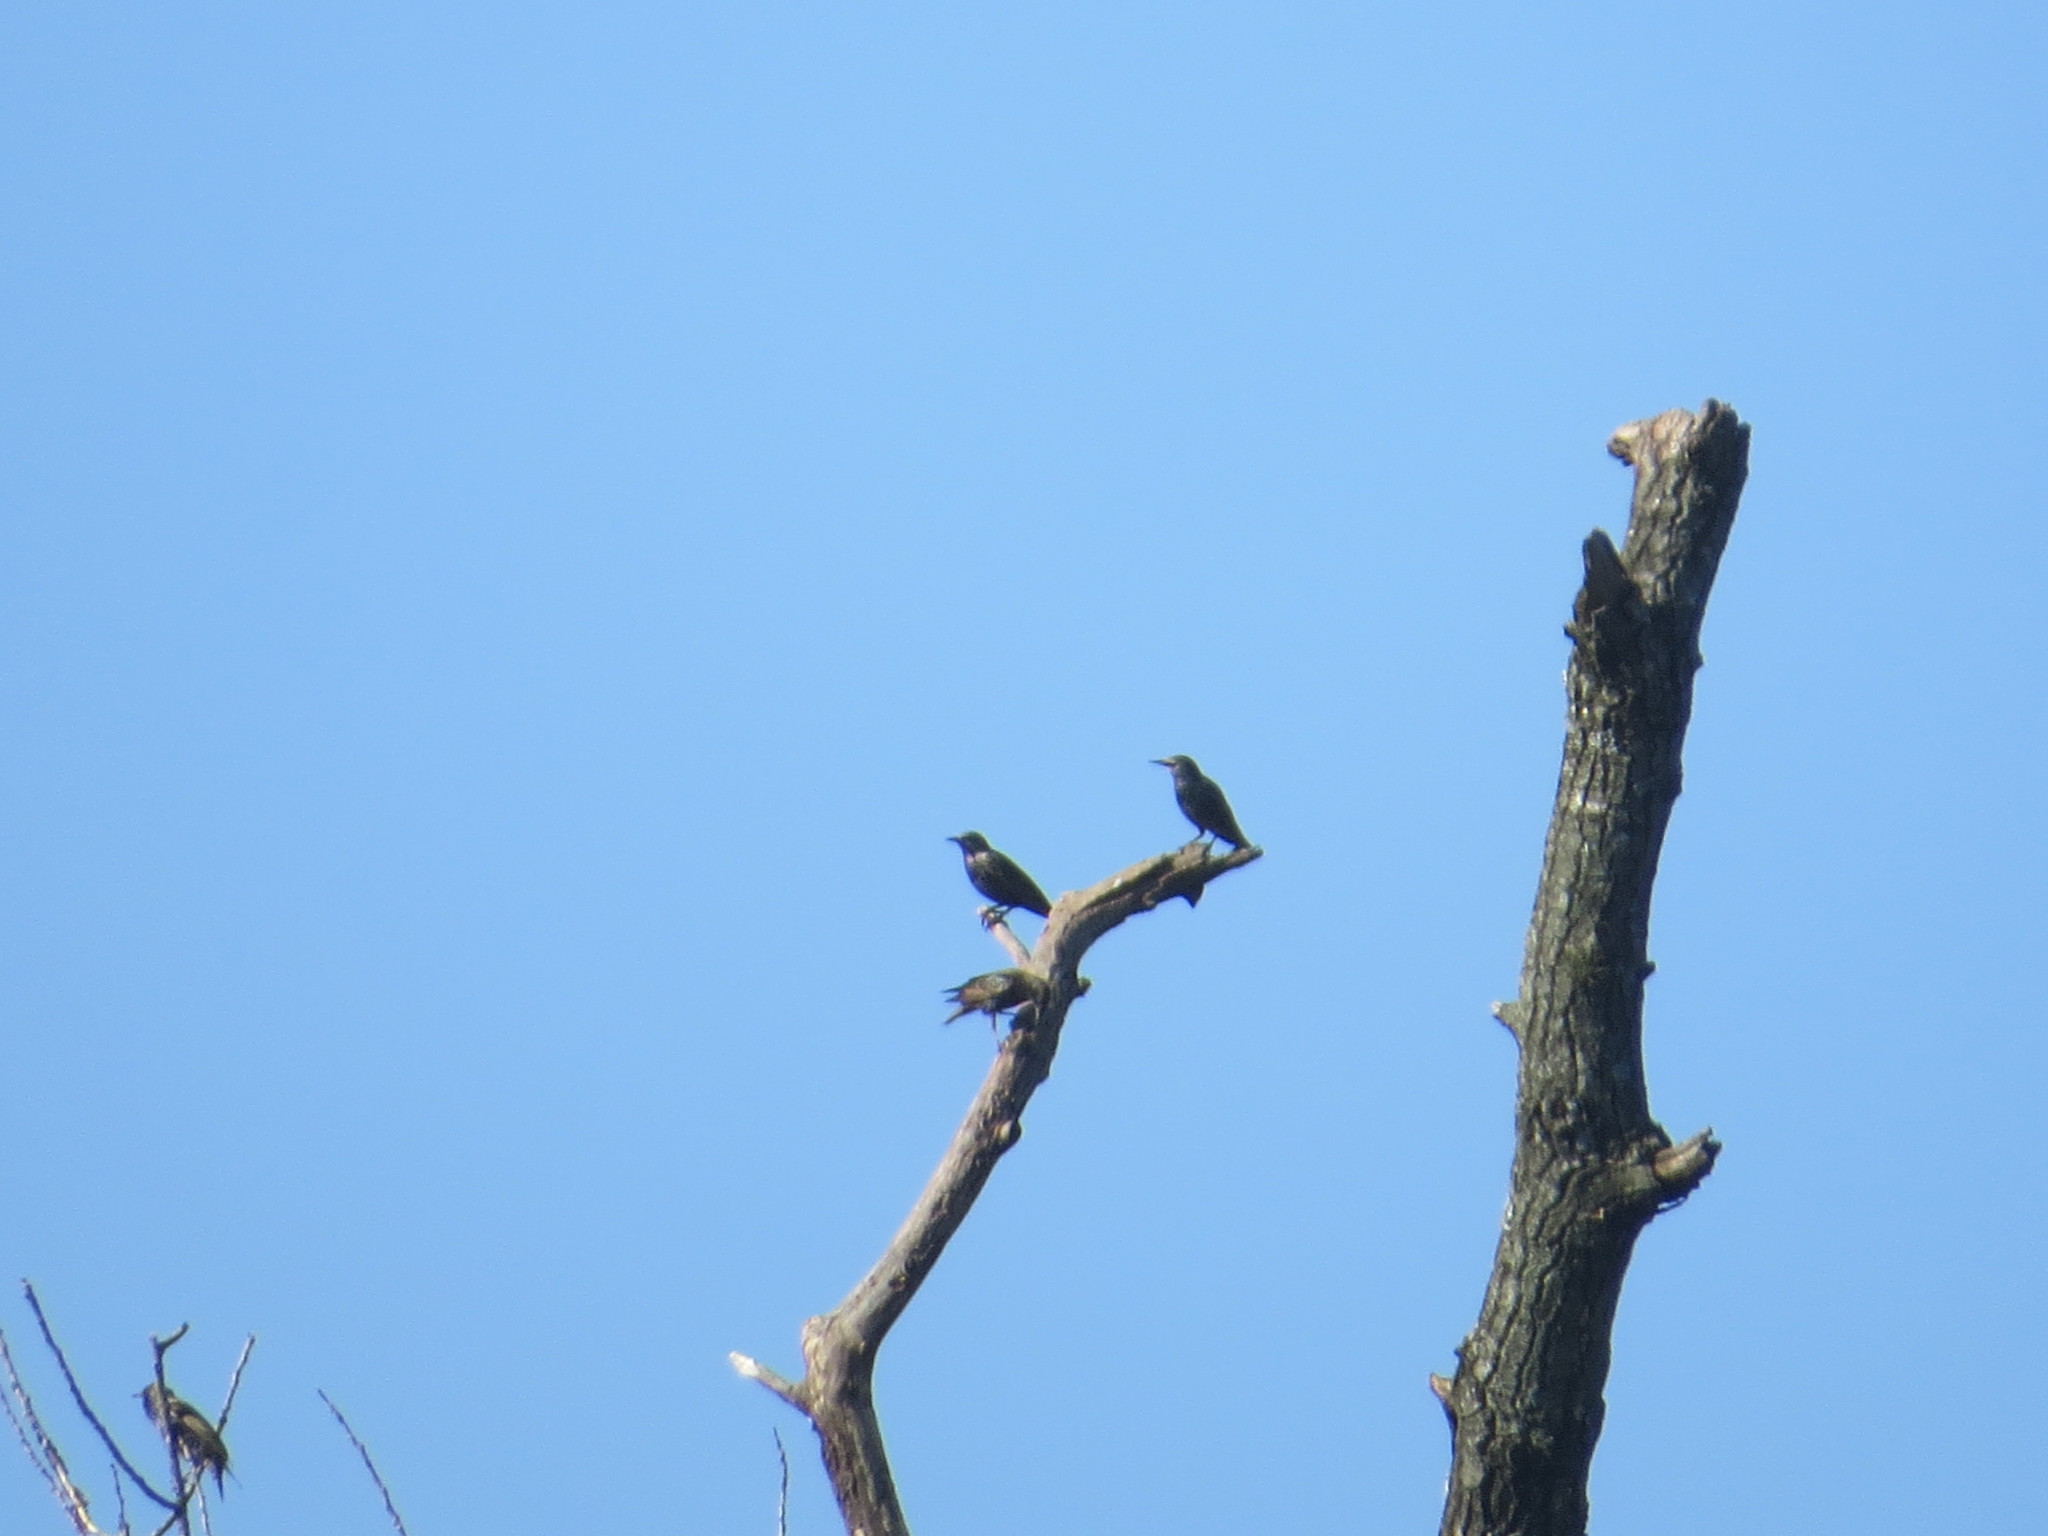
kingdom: Animalia
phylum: Chordata
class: Aves
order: Passeriformes
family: Sturnidae
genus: Sturnus
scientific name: Sturnus vulgaris
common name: Common starling
